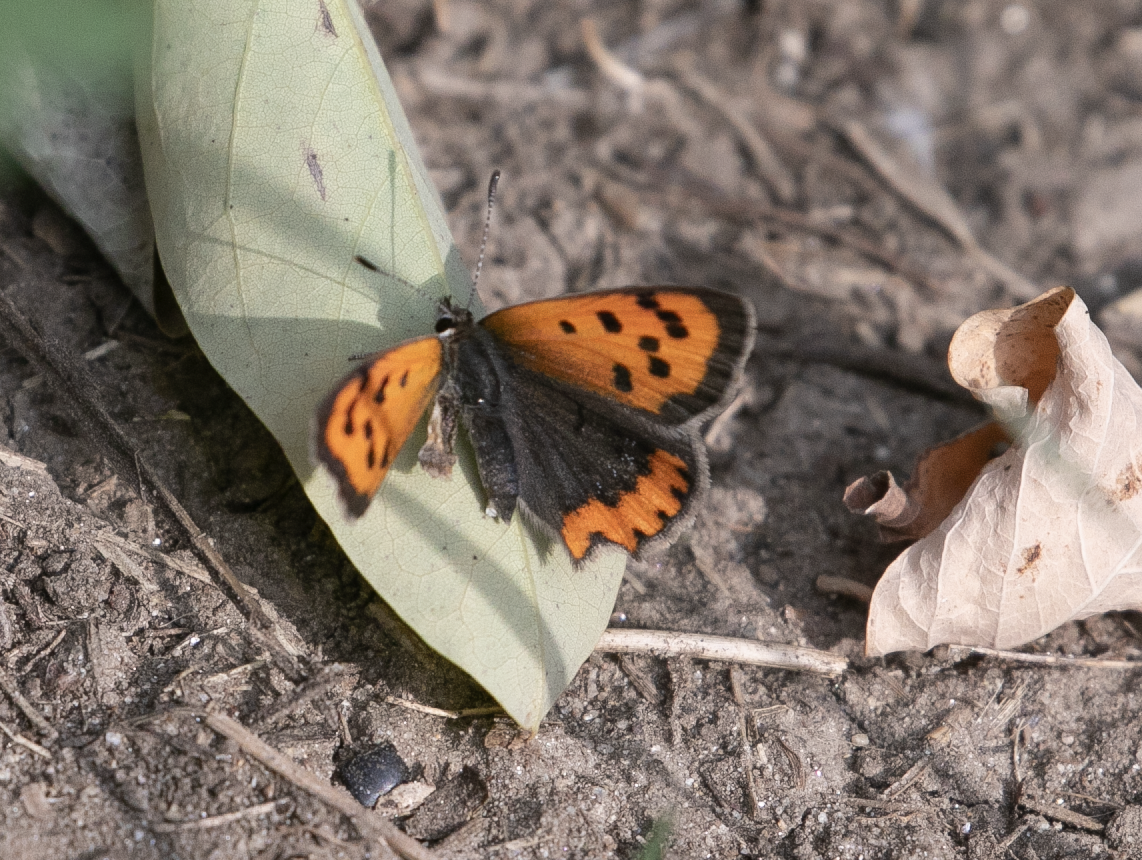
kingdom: Animalia
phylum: Arthropoda
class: Insecta
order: Lepidoptera
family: Lycaenidae
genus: Lycaena
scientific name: Lycaena phlaeas
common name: Small copper
